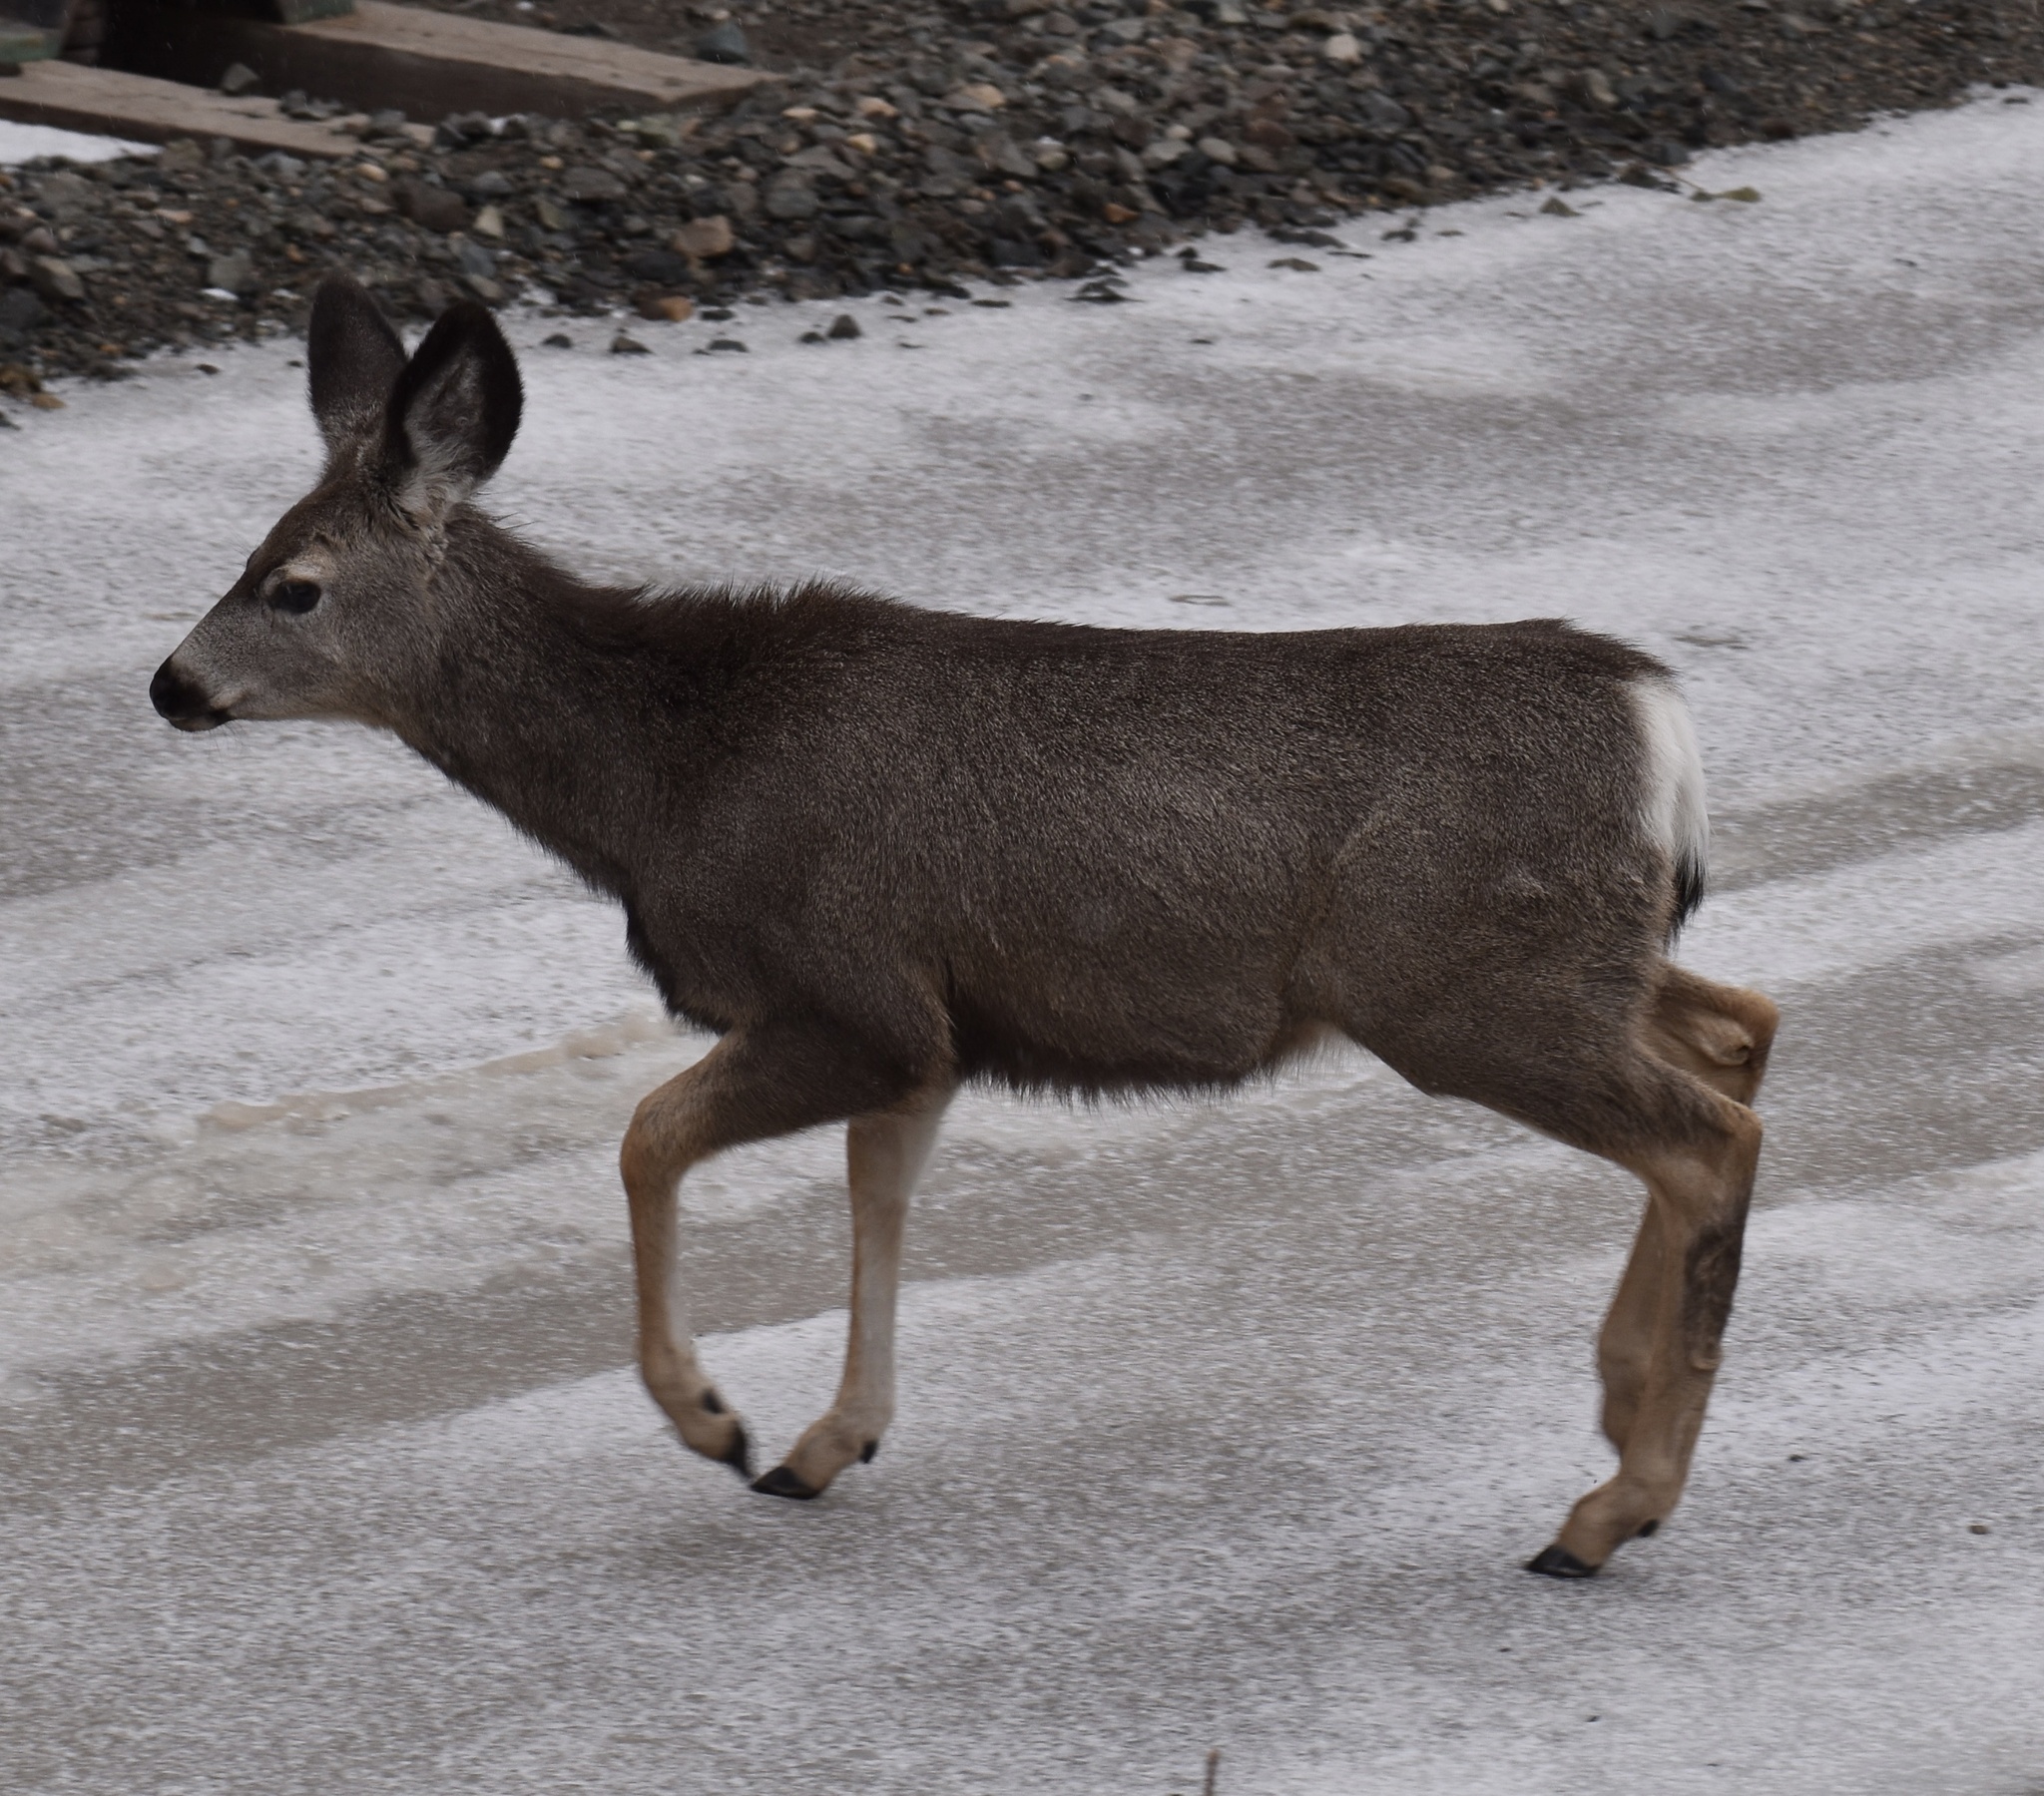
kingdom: Animalia
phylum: Chordata
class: Mammalia
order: Artiodactyla
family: Cervidae
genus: Odocoileus
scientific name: Odocoileus hemionus
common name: Mule deer
